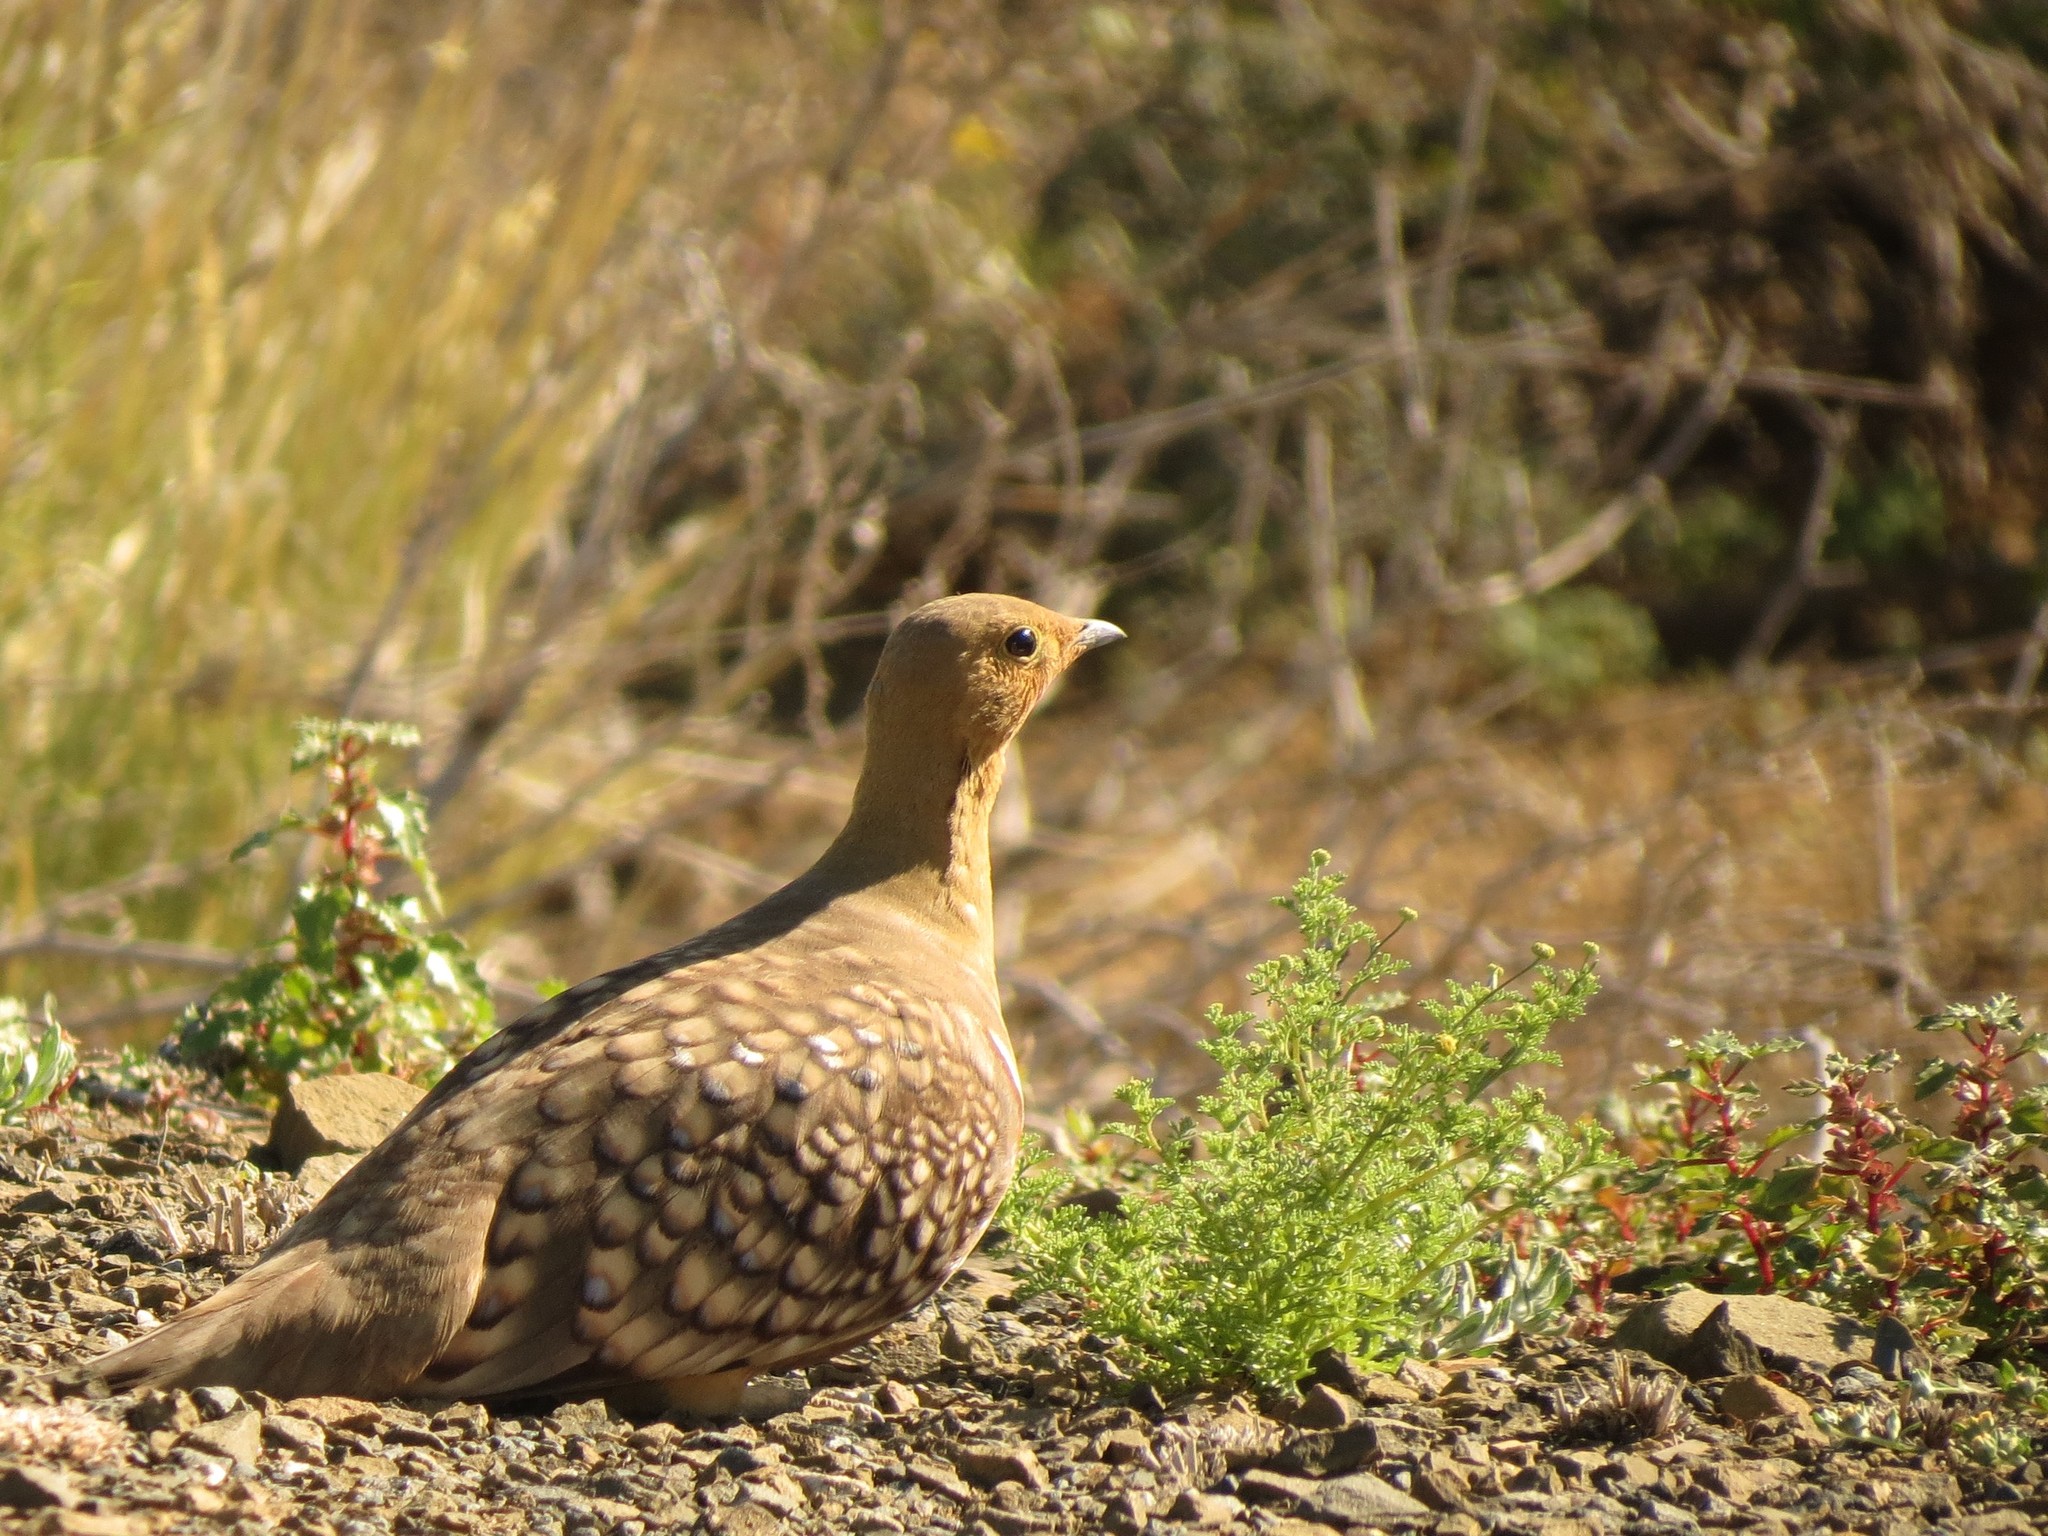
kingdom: Animalia
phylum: Chordata
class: Aves
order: Pteroclidiformes
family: Pteroclididae
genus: Pterocles
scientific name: Pterocles namaqua
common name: Namaqua sandgrouse
